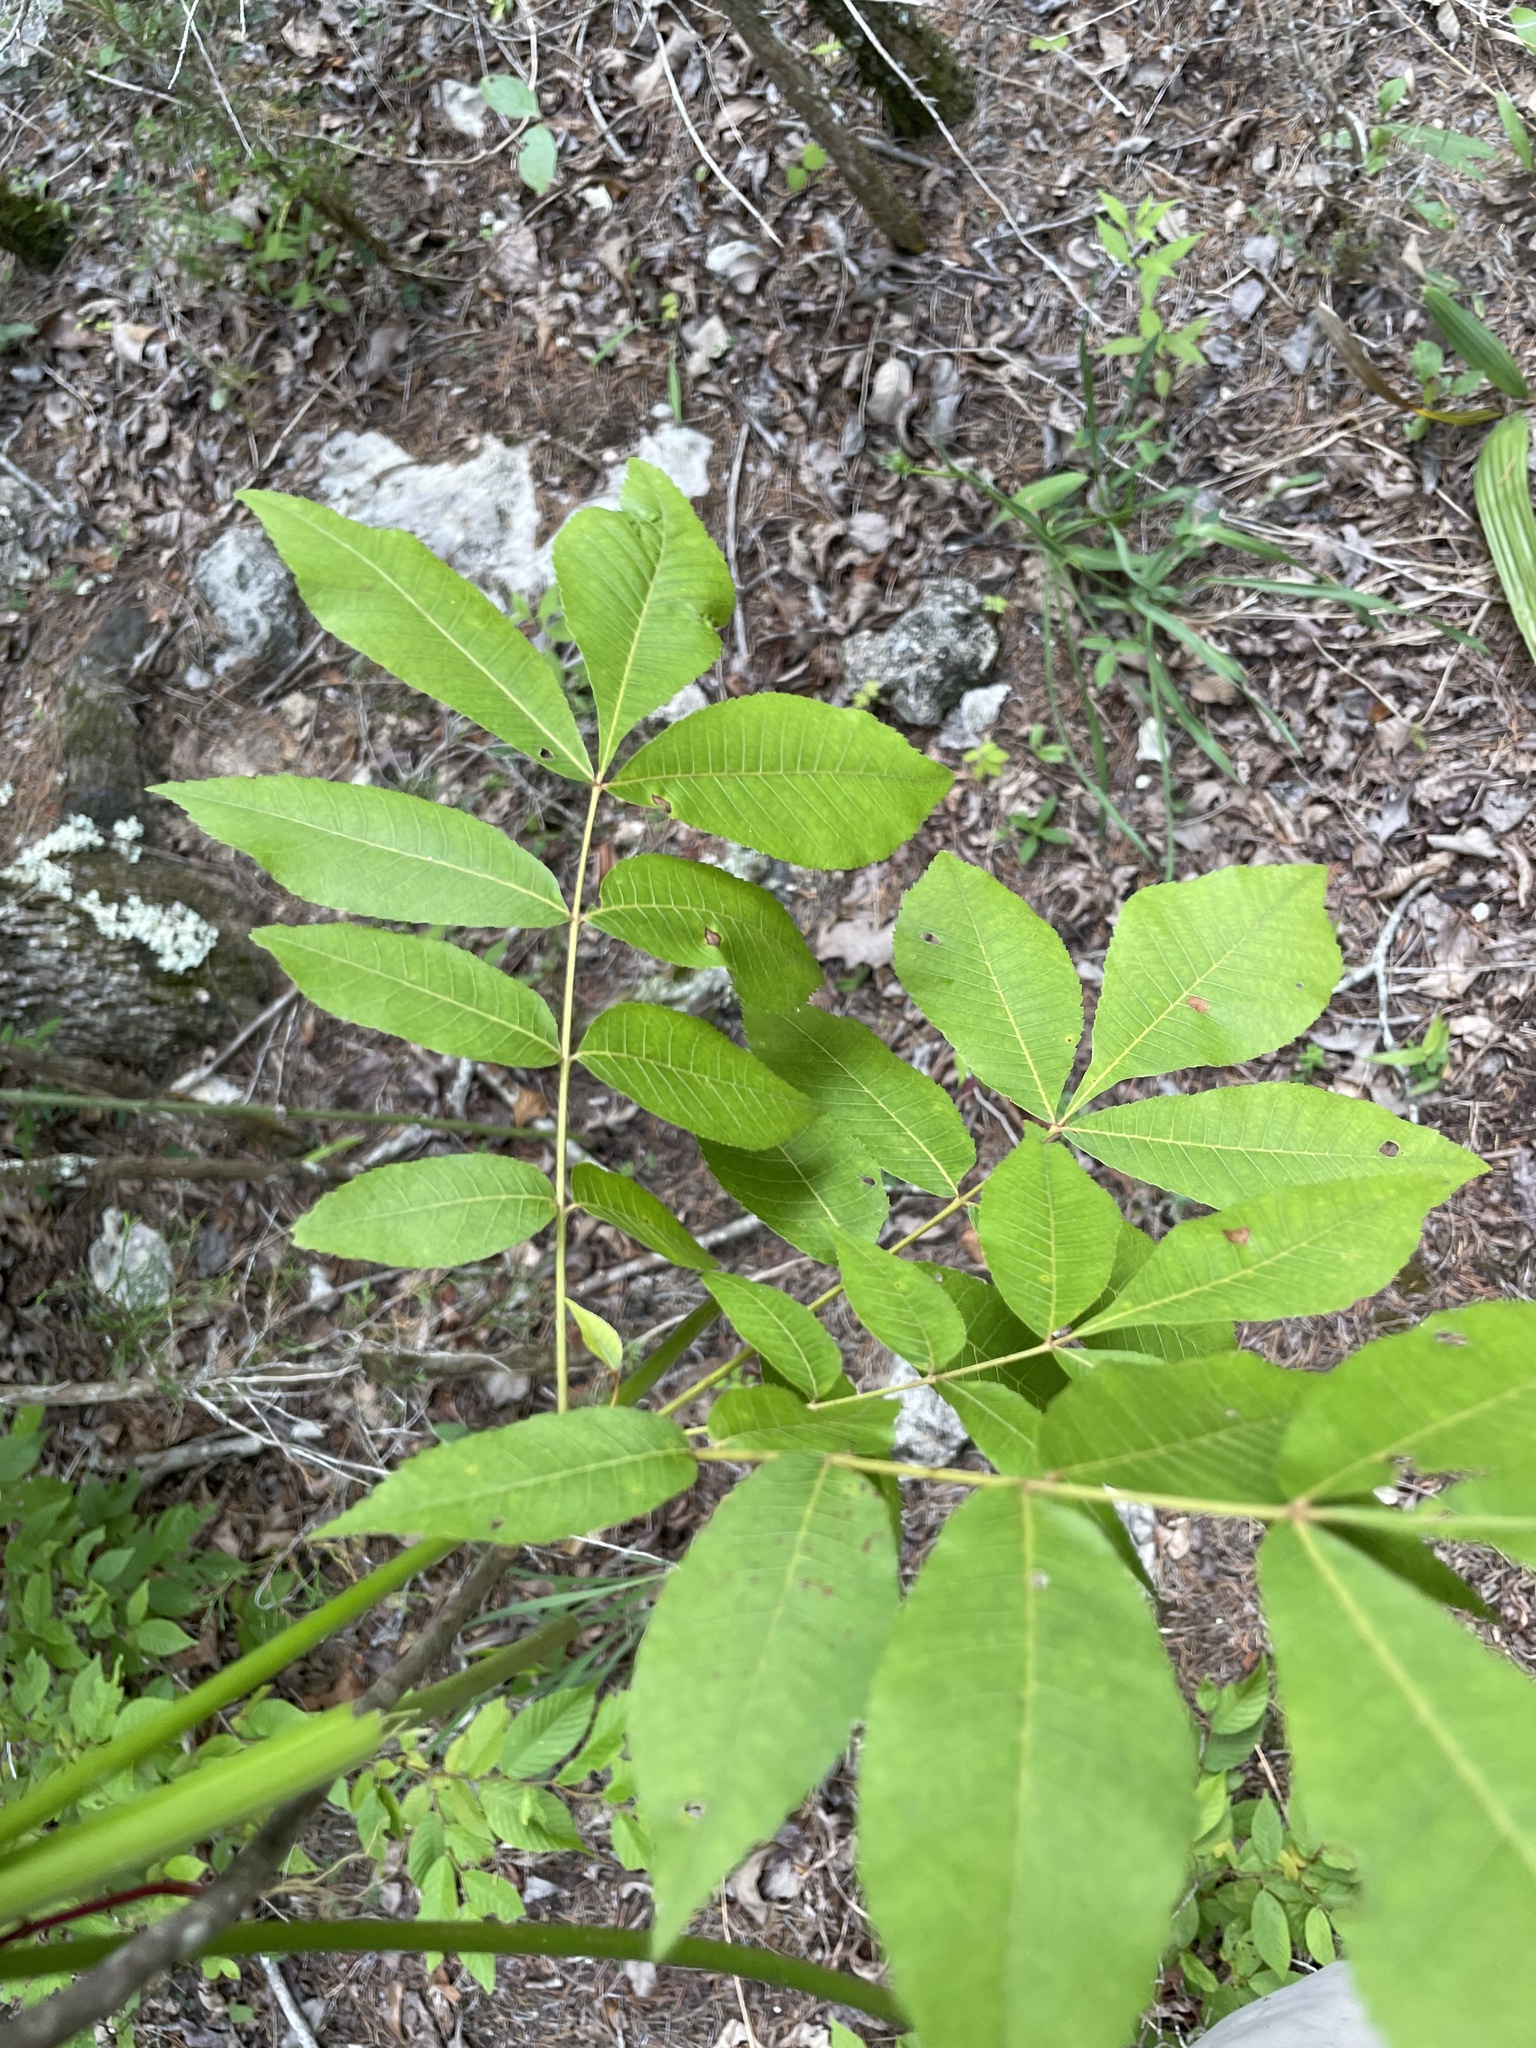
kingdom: Plantae
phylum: Tracheophyta
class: Magnoliopsida
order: Fagales
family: Juglandaceae
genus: Carya
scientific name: Carya myristiciformis
